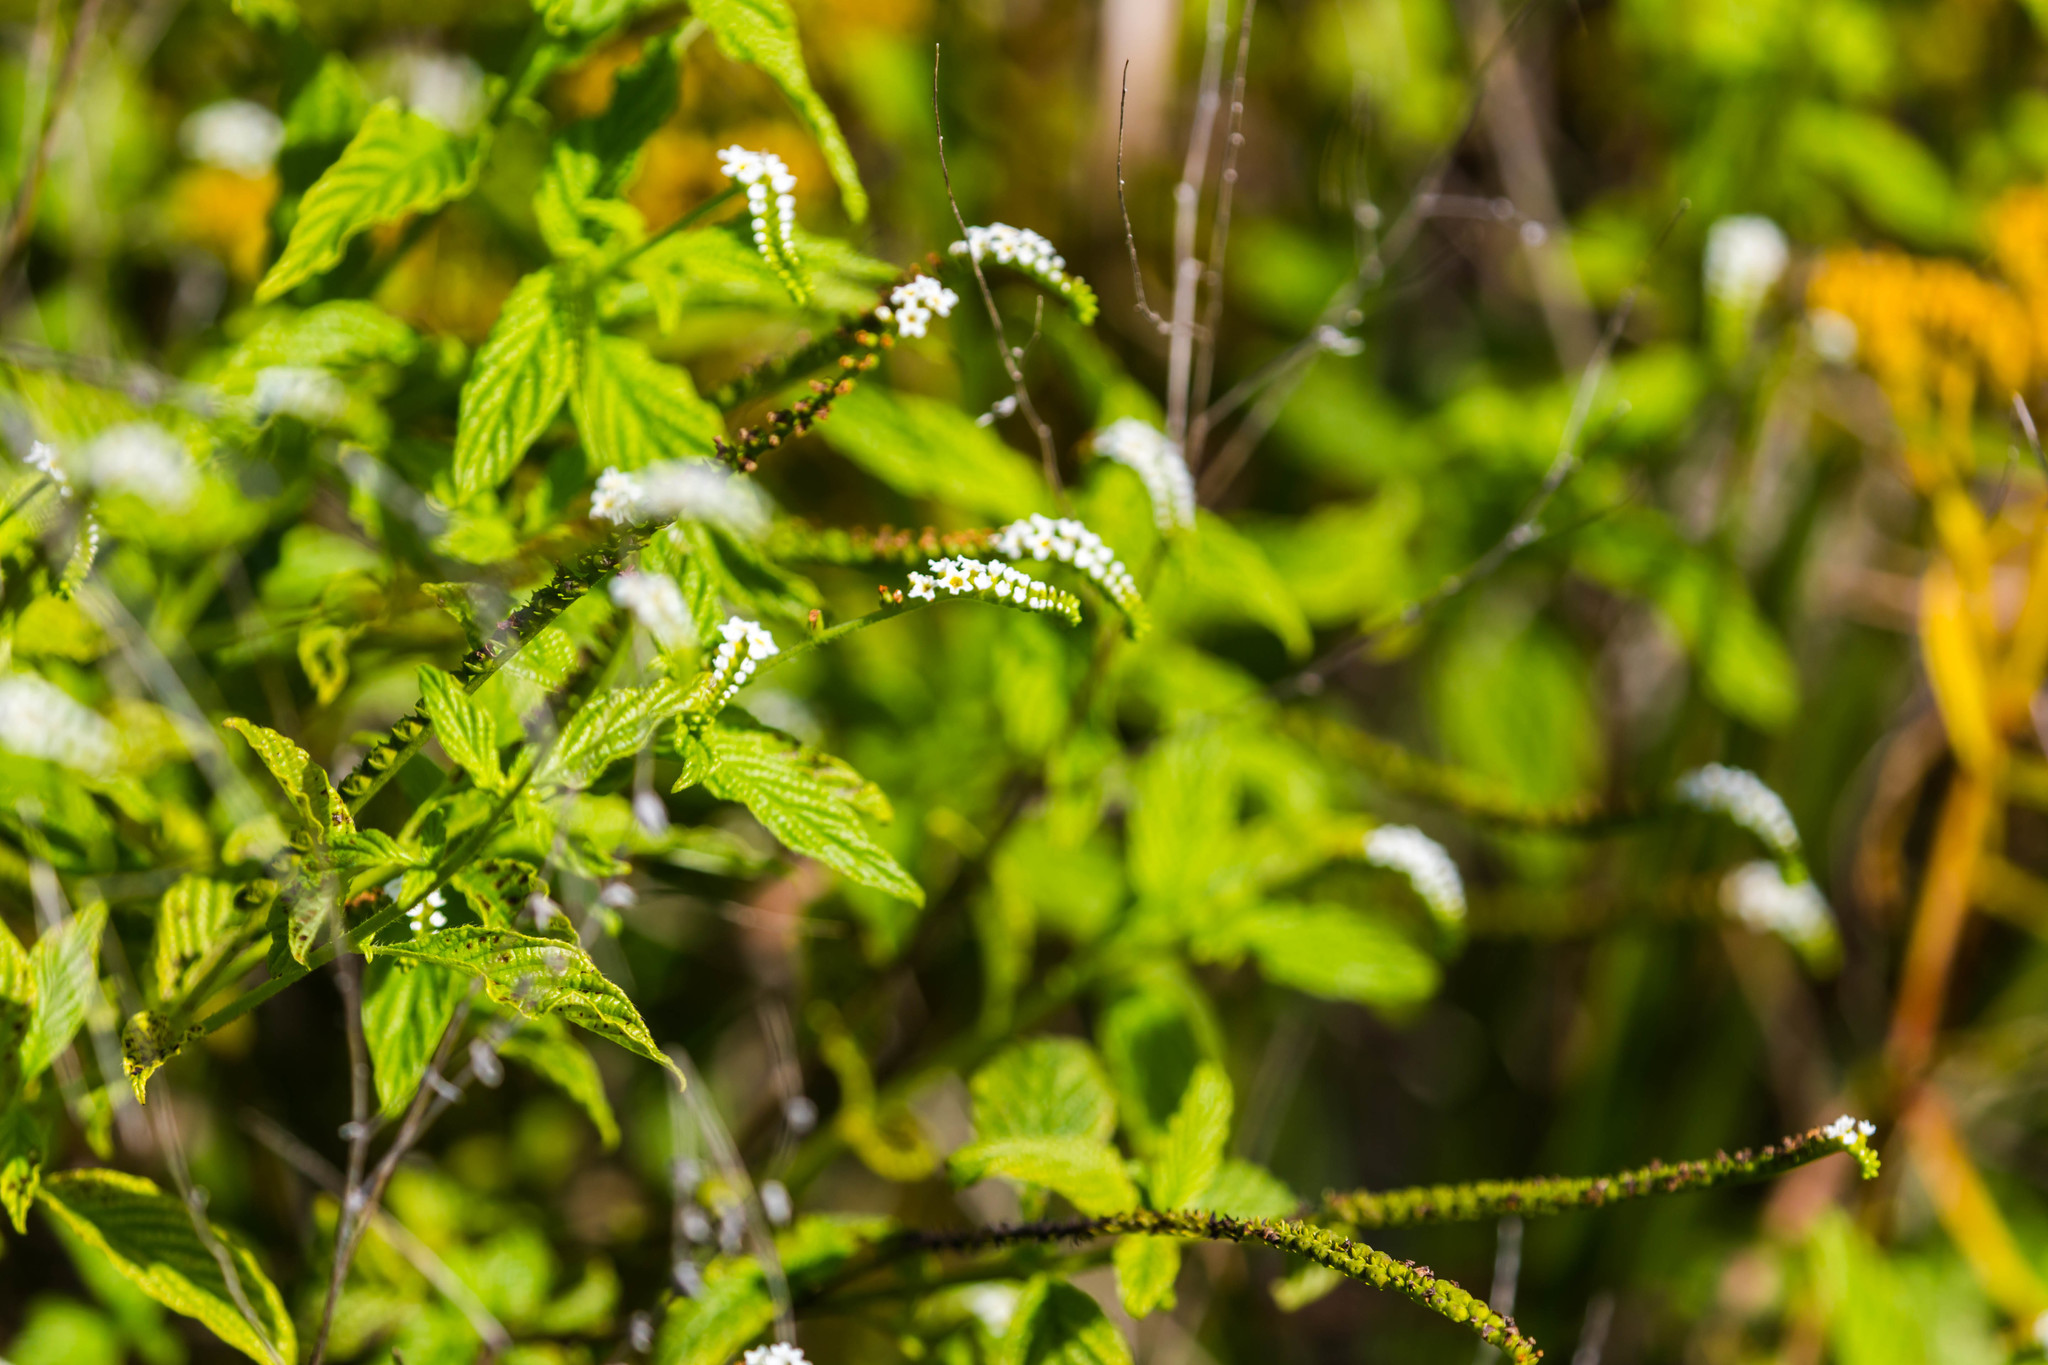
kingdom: Plantae
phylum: Tracheophyta
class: Magnoliopsida
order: Boraginales
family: Heliotropiaceae
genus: Heliotropium
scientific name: Heliotropium angiospermum
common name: Eye bright
